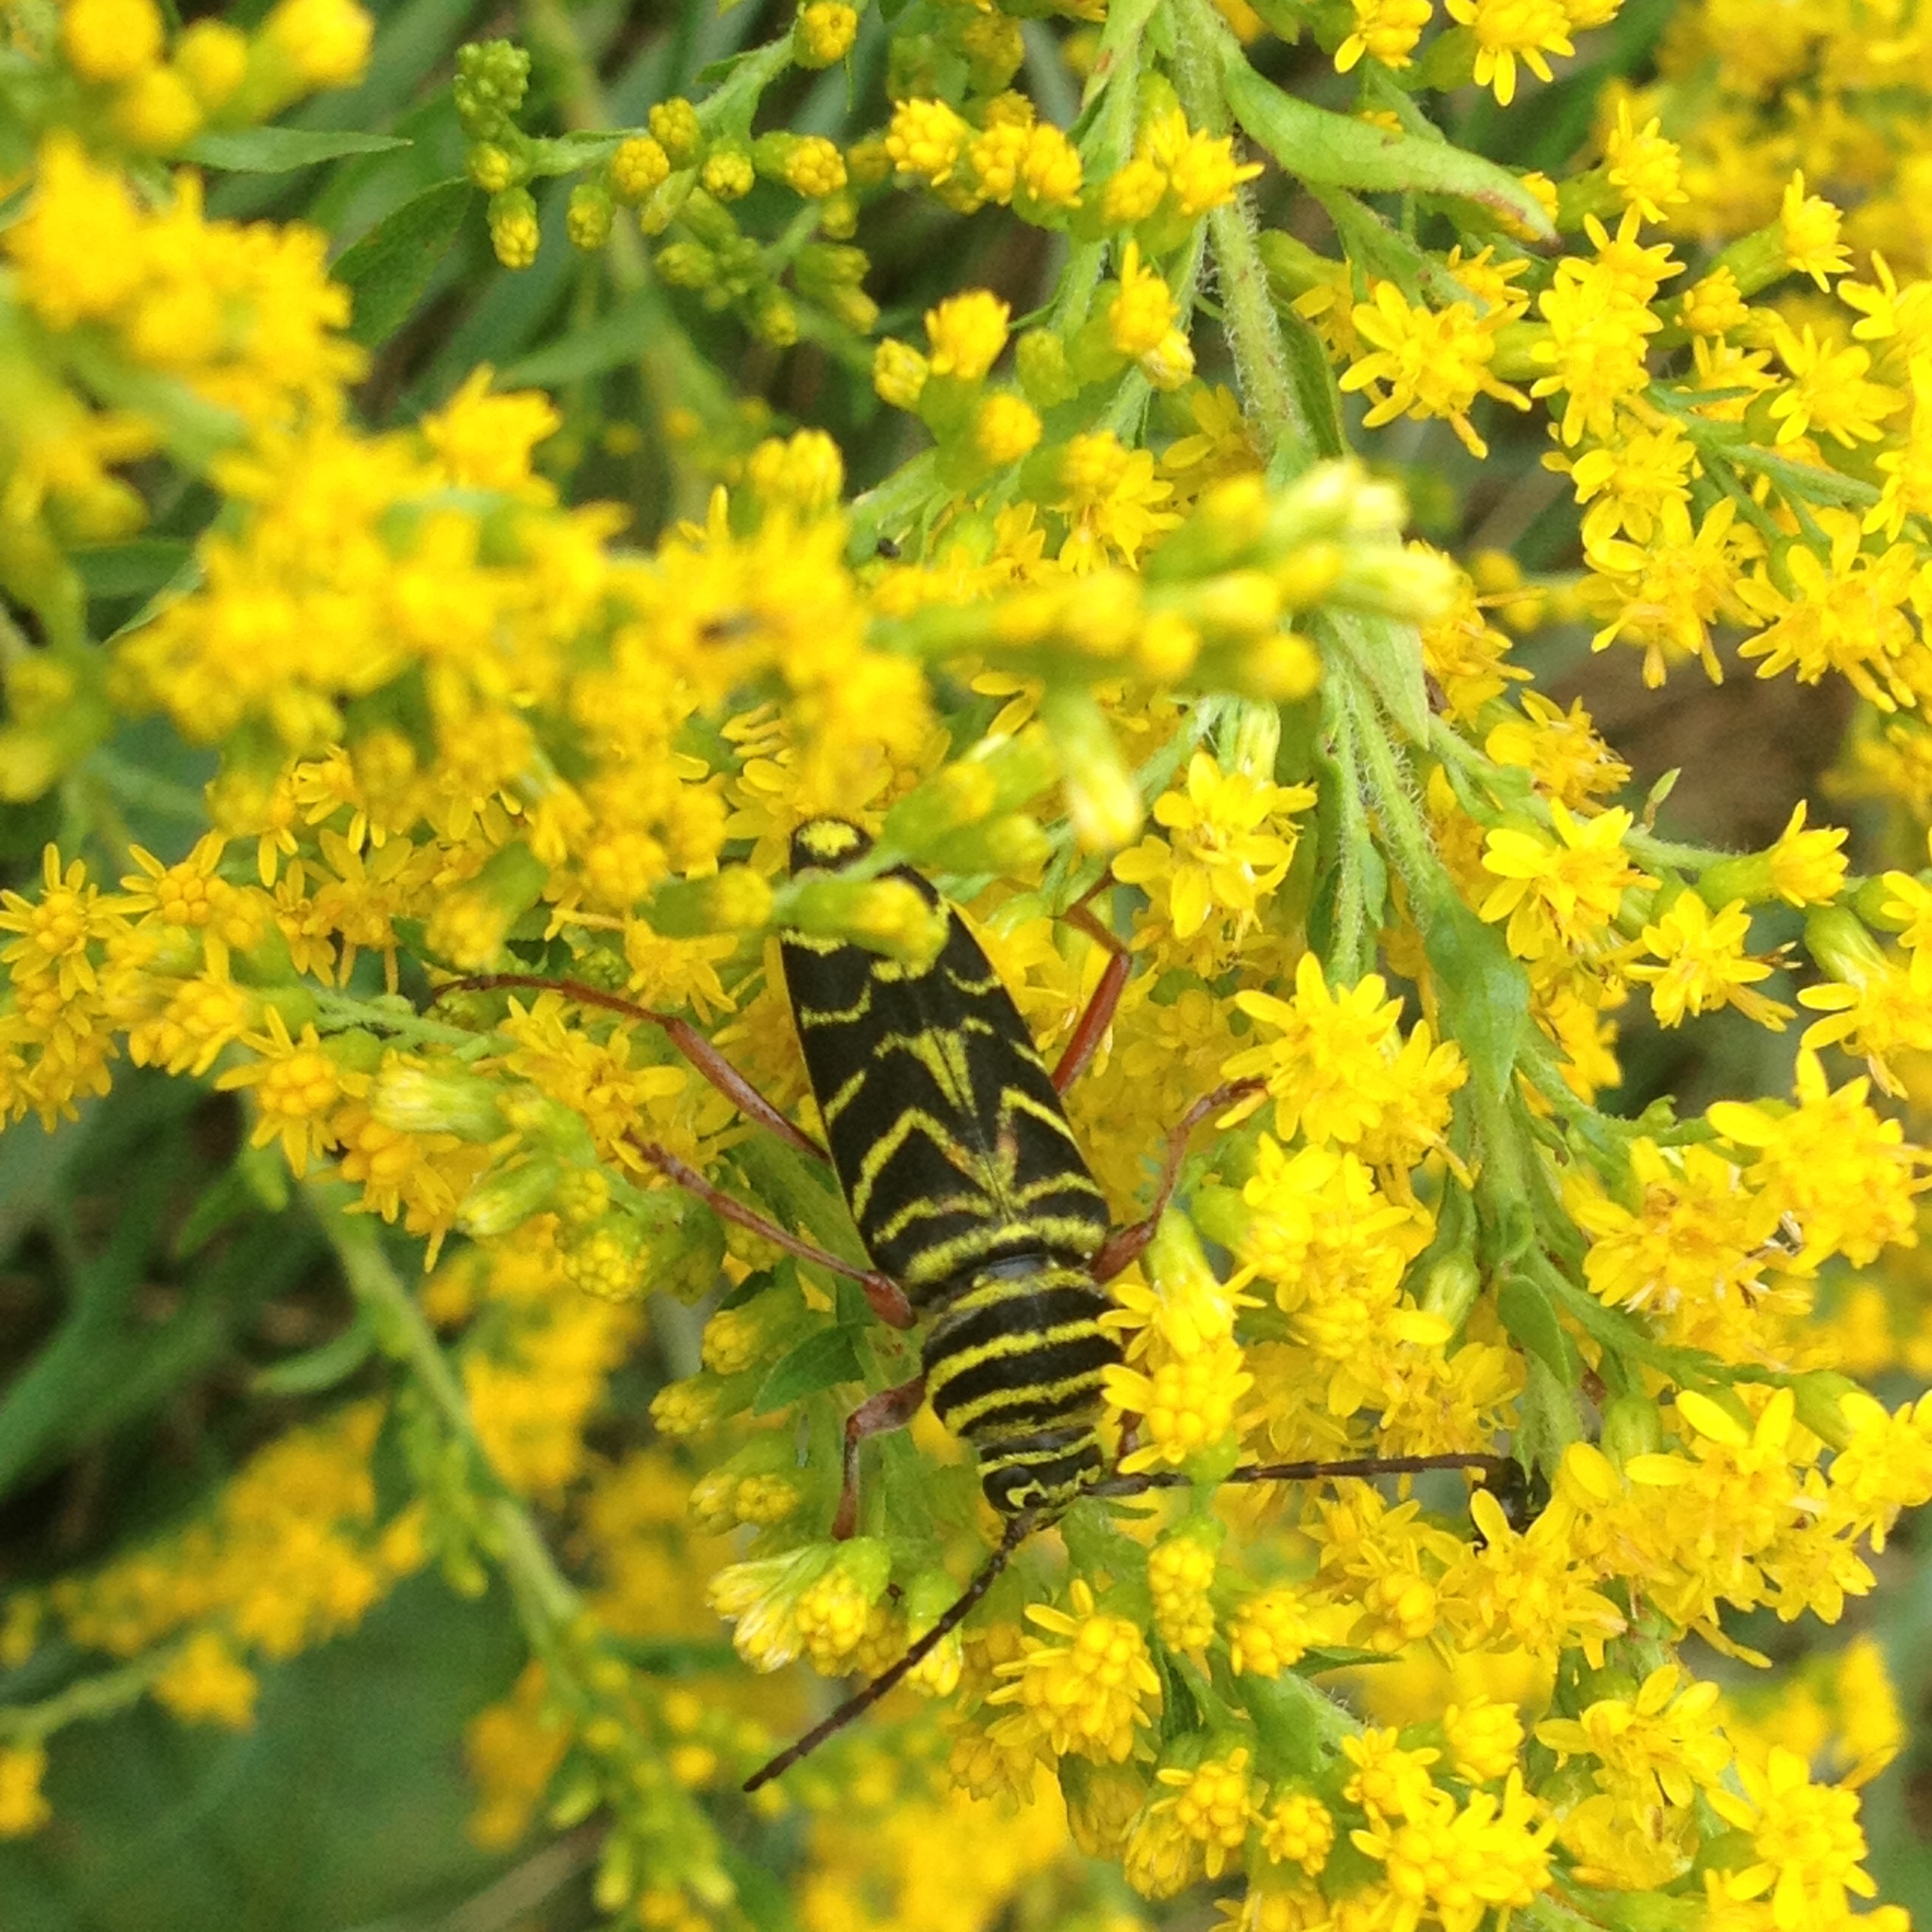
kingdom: Animalia
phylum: Arthropoda
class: Insecta
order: Coleoptera
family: Cerambycidae
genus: Megacyllene
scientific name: Megacyllene robiniae
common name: Locust borer
